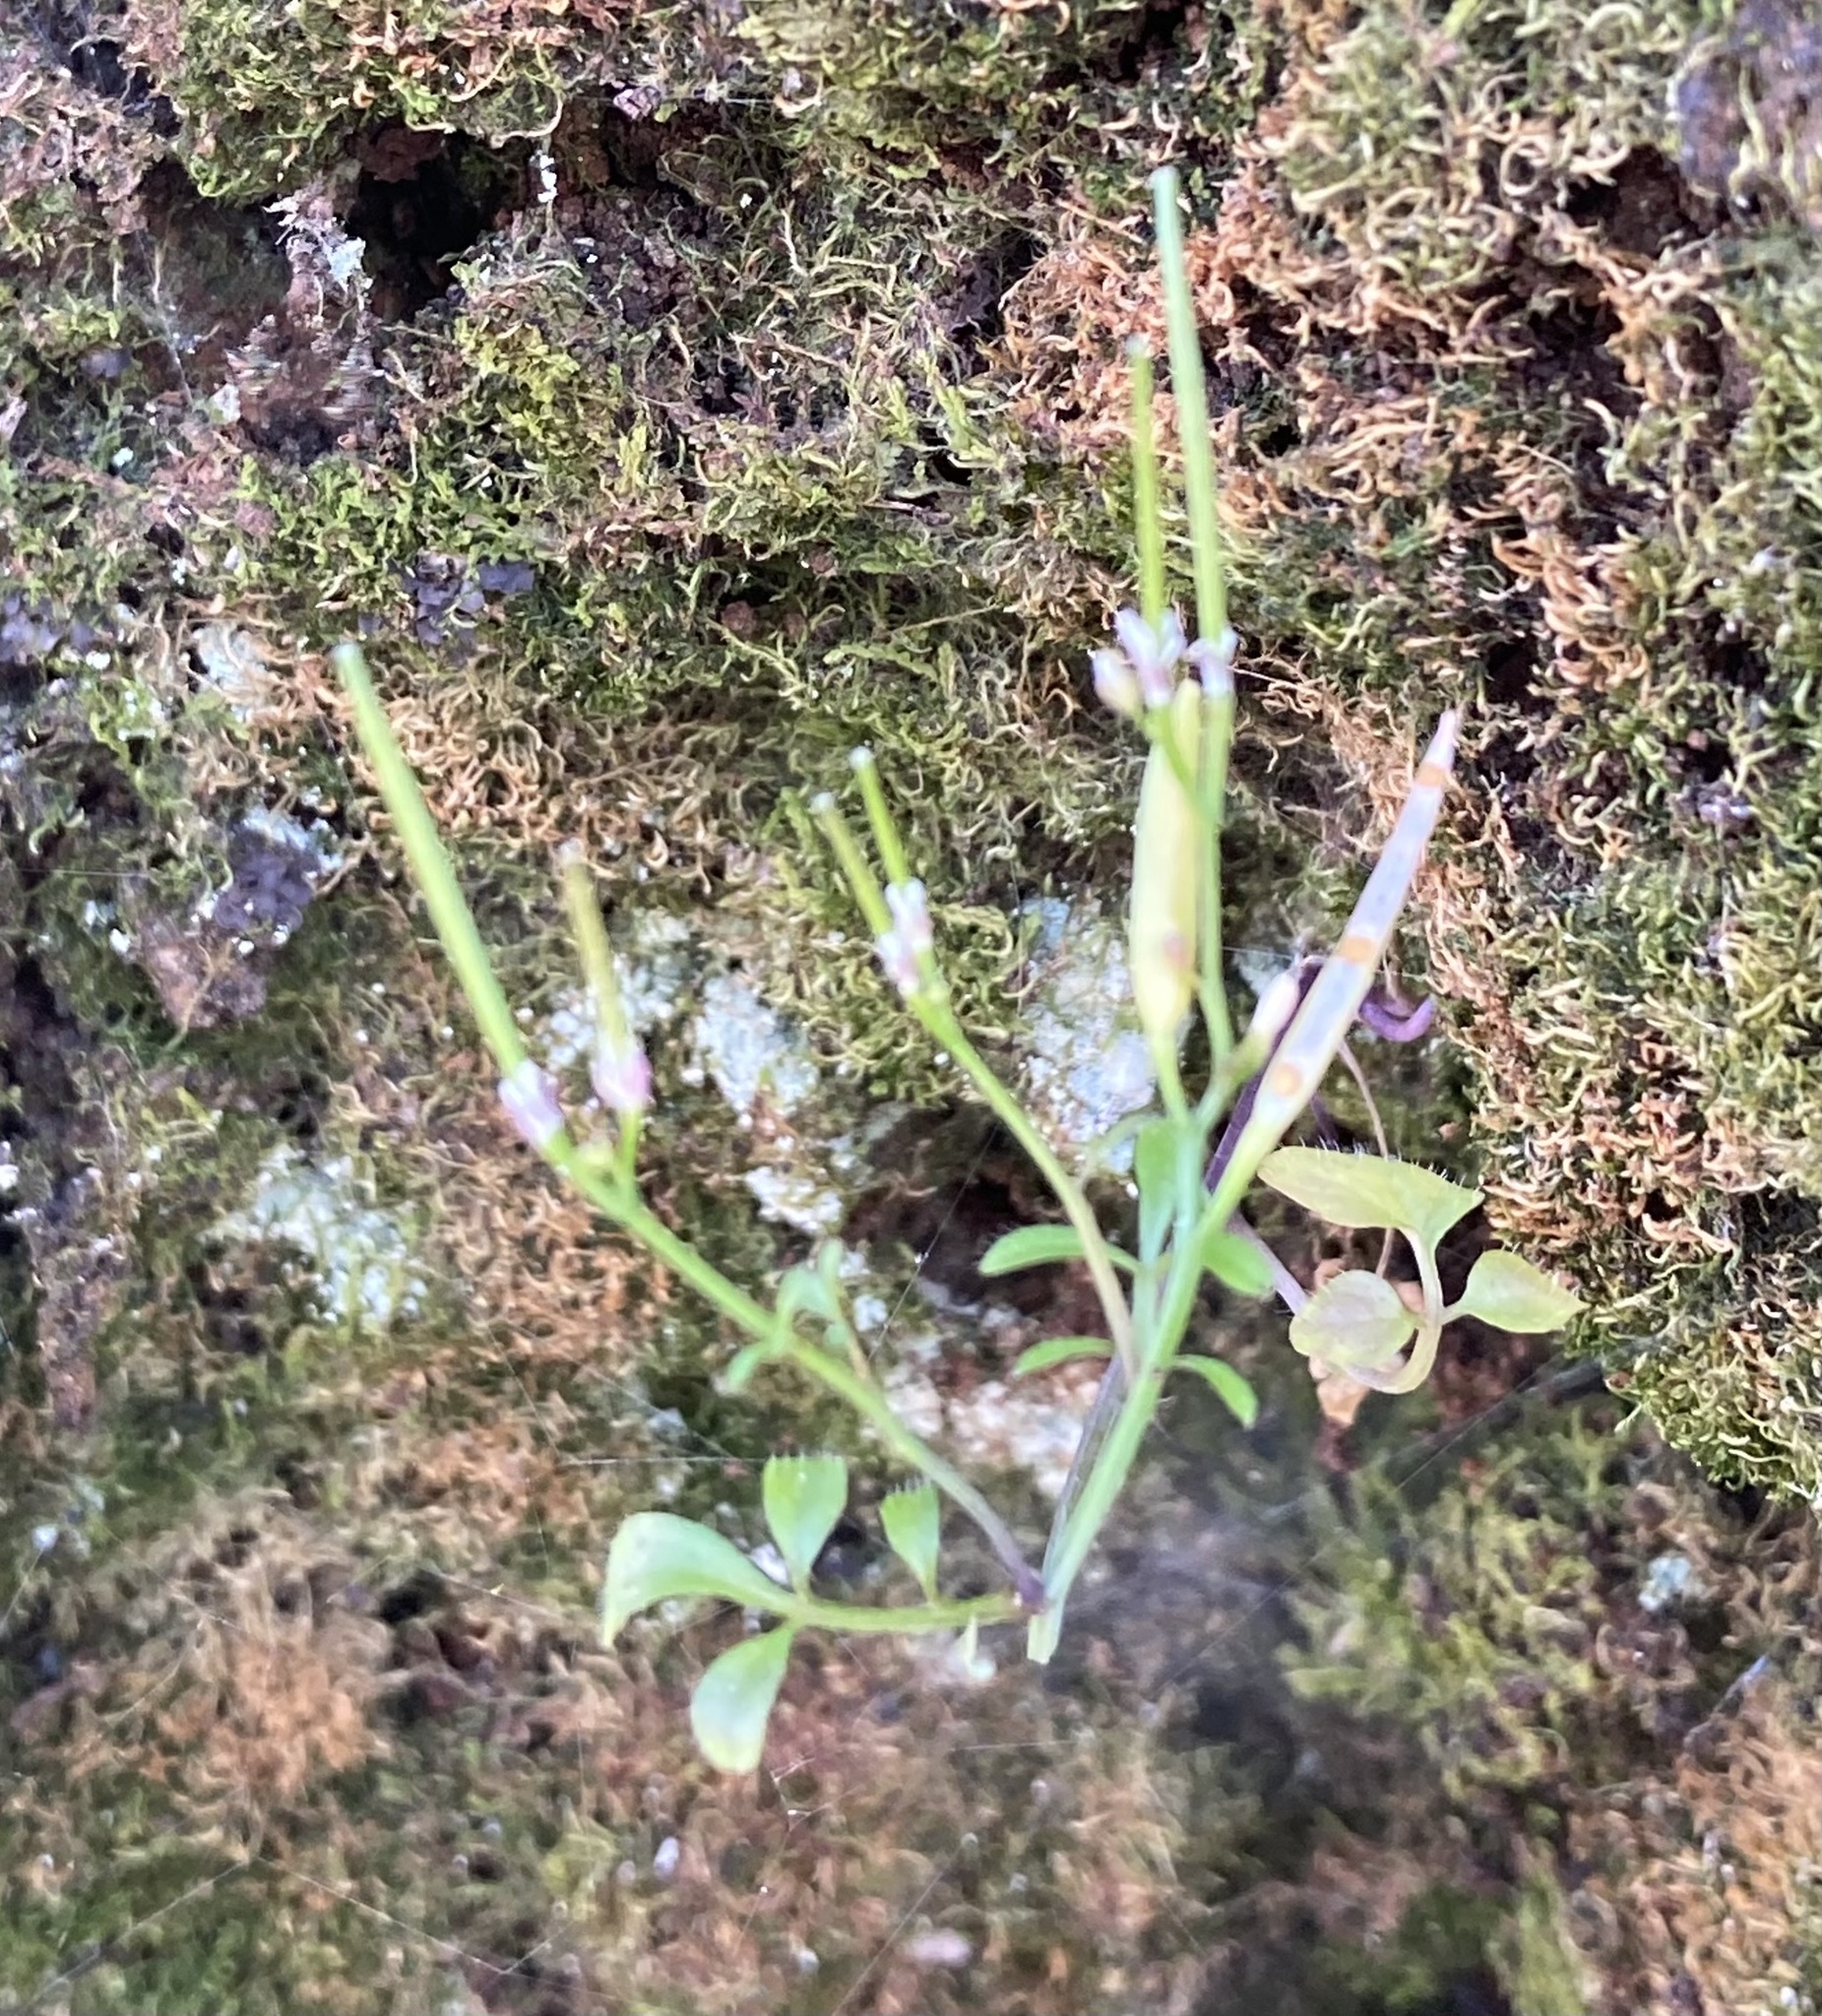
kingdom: Plantae
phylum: Tracheophyta
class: Magnoliopsida
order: Brassicales
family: Brassicaceae
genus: Cardamine
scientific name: Cardamine hirsuta
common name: Hairy bittercress
